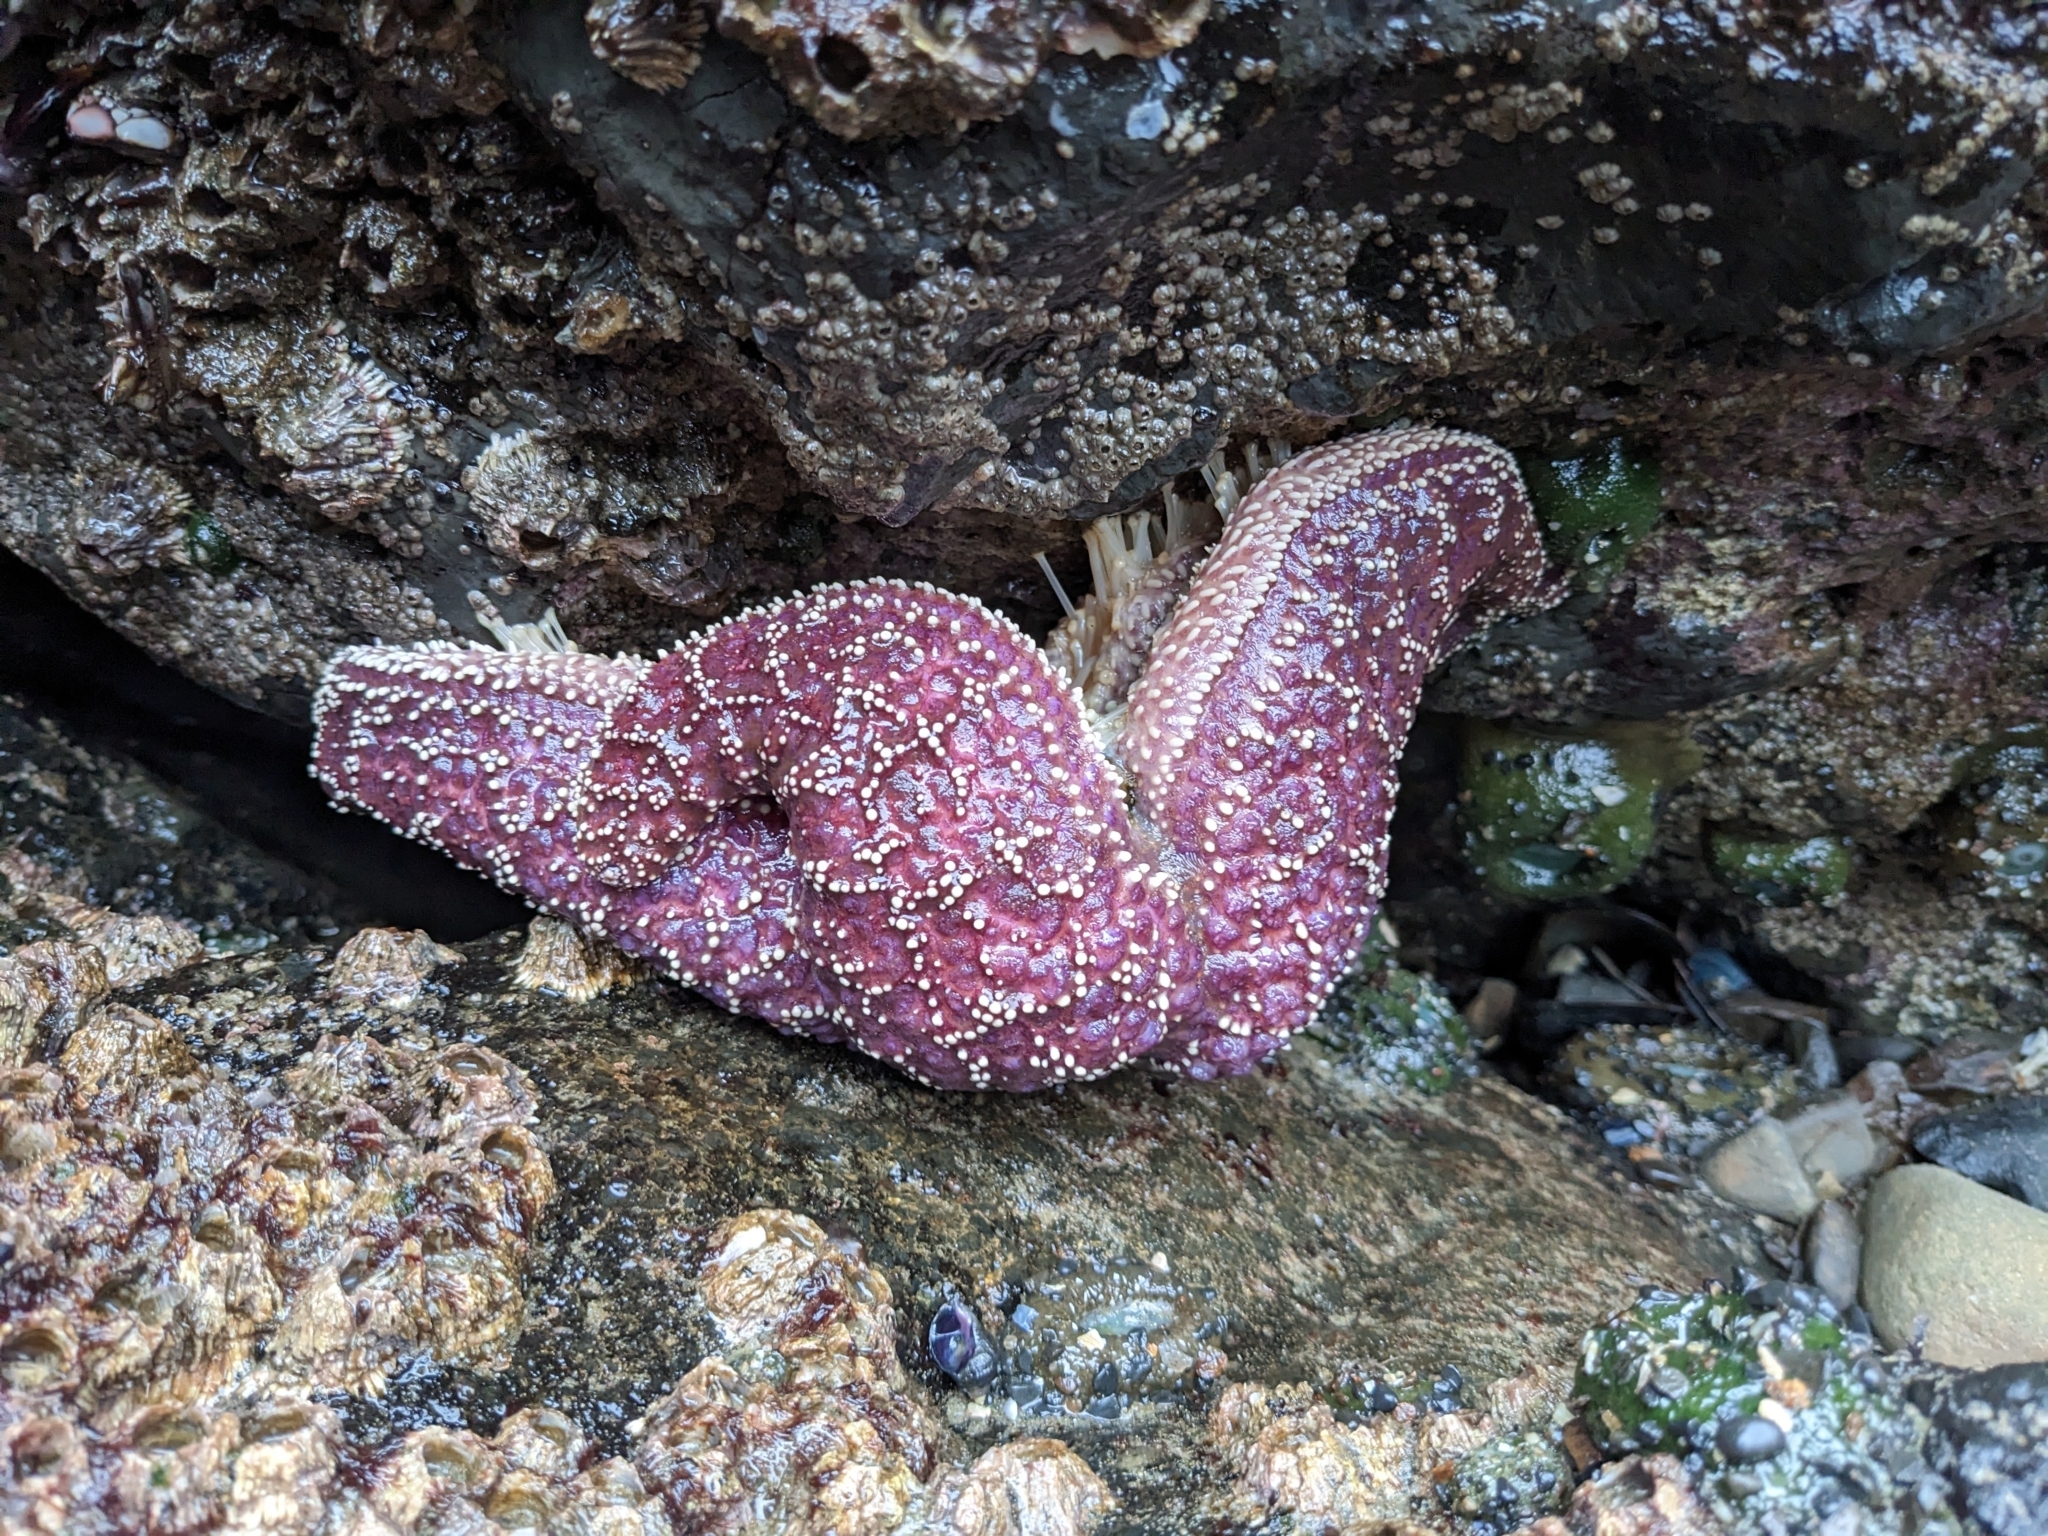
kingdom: Animalia
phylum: Echinodermata
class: Asteroidea
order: Forcipulatida
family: Asteriidae
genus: Pisaster
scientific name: Pisaster ochraceus
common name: Ochre stars
